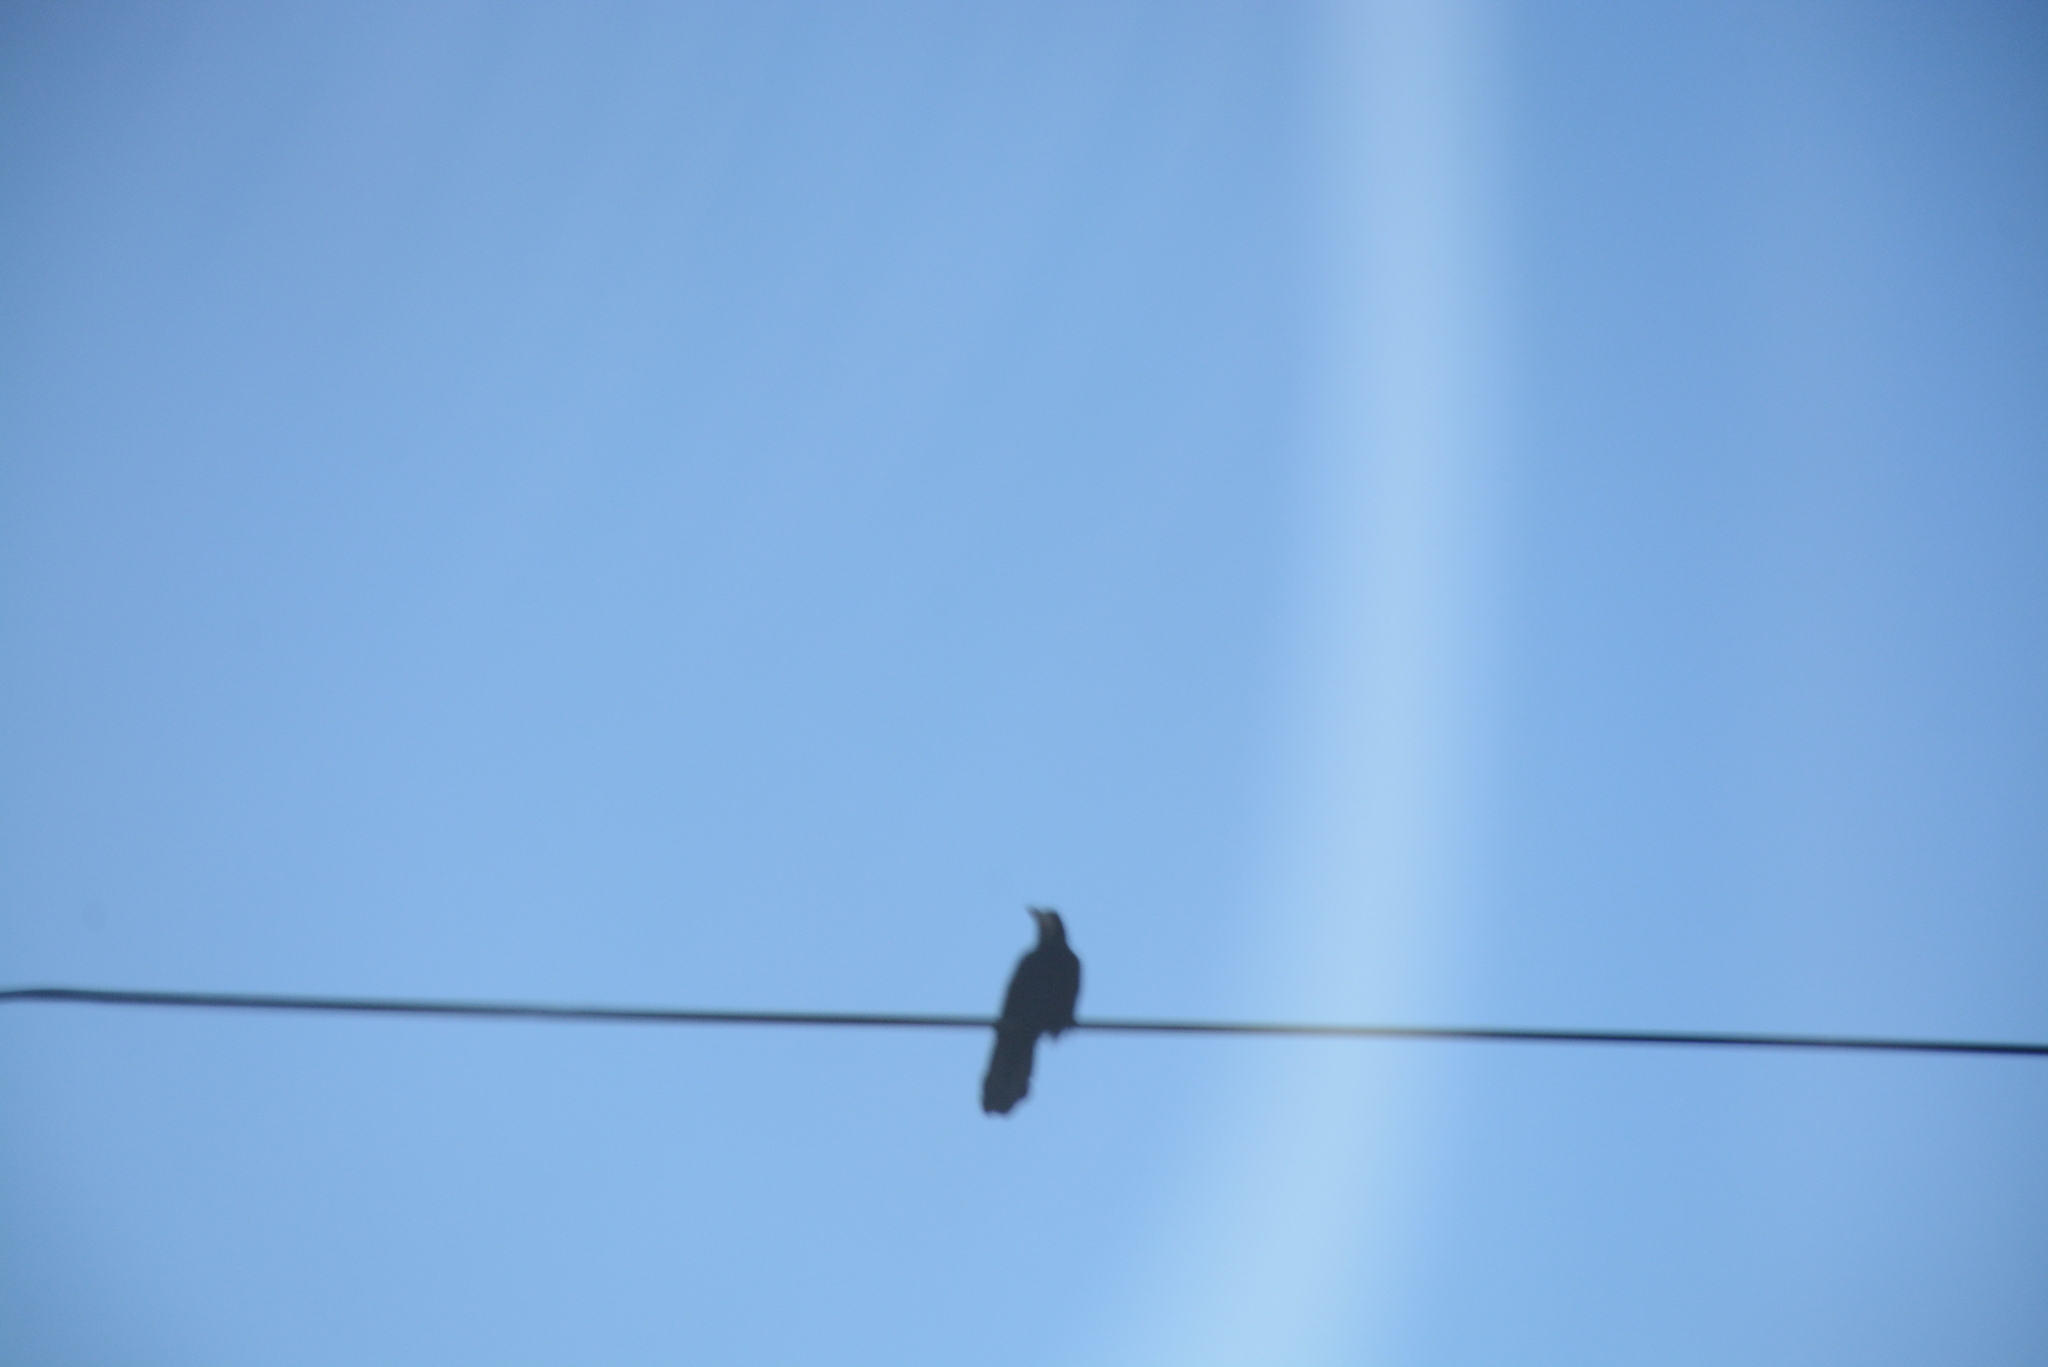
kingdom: Animalia
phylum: Chordata
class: Aves
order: Passeriformes
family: Corvidae
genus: Corvus
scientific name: Corvus frugilegus
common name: Rook
